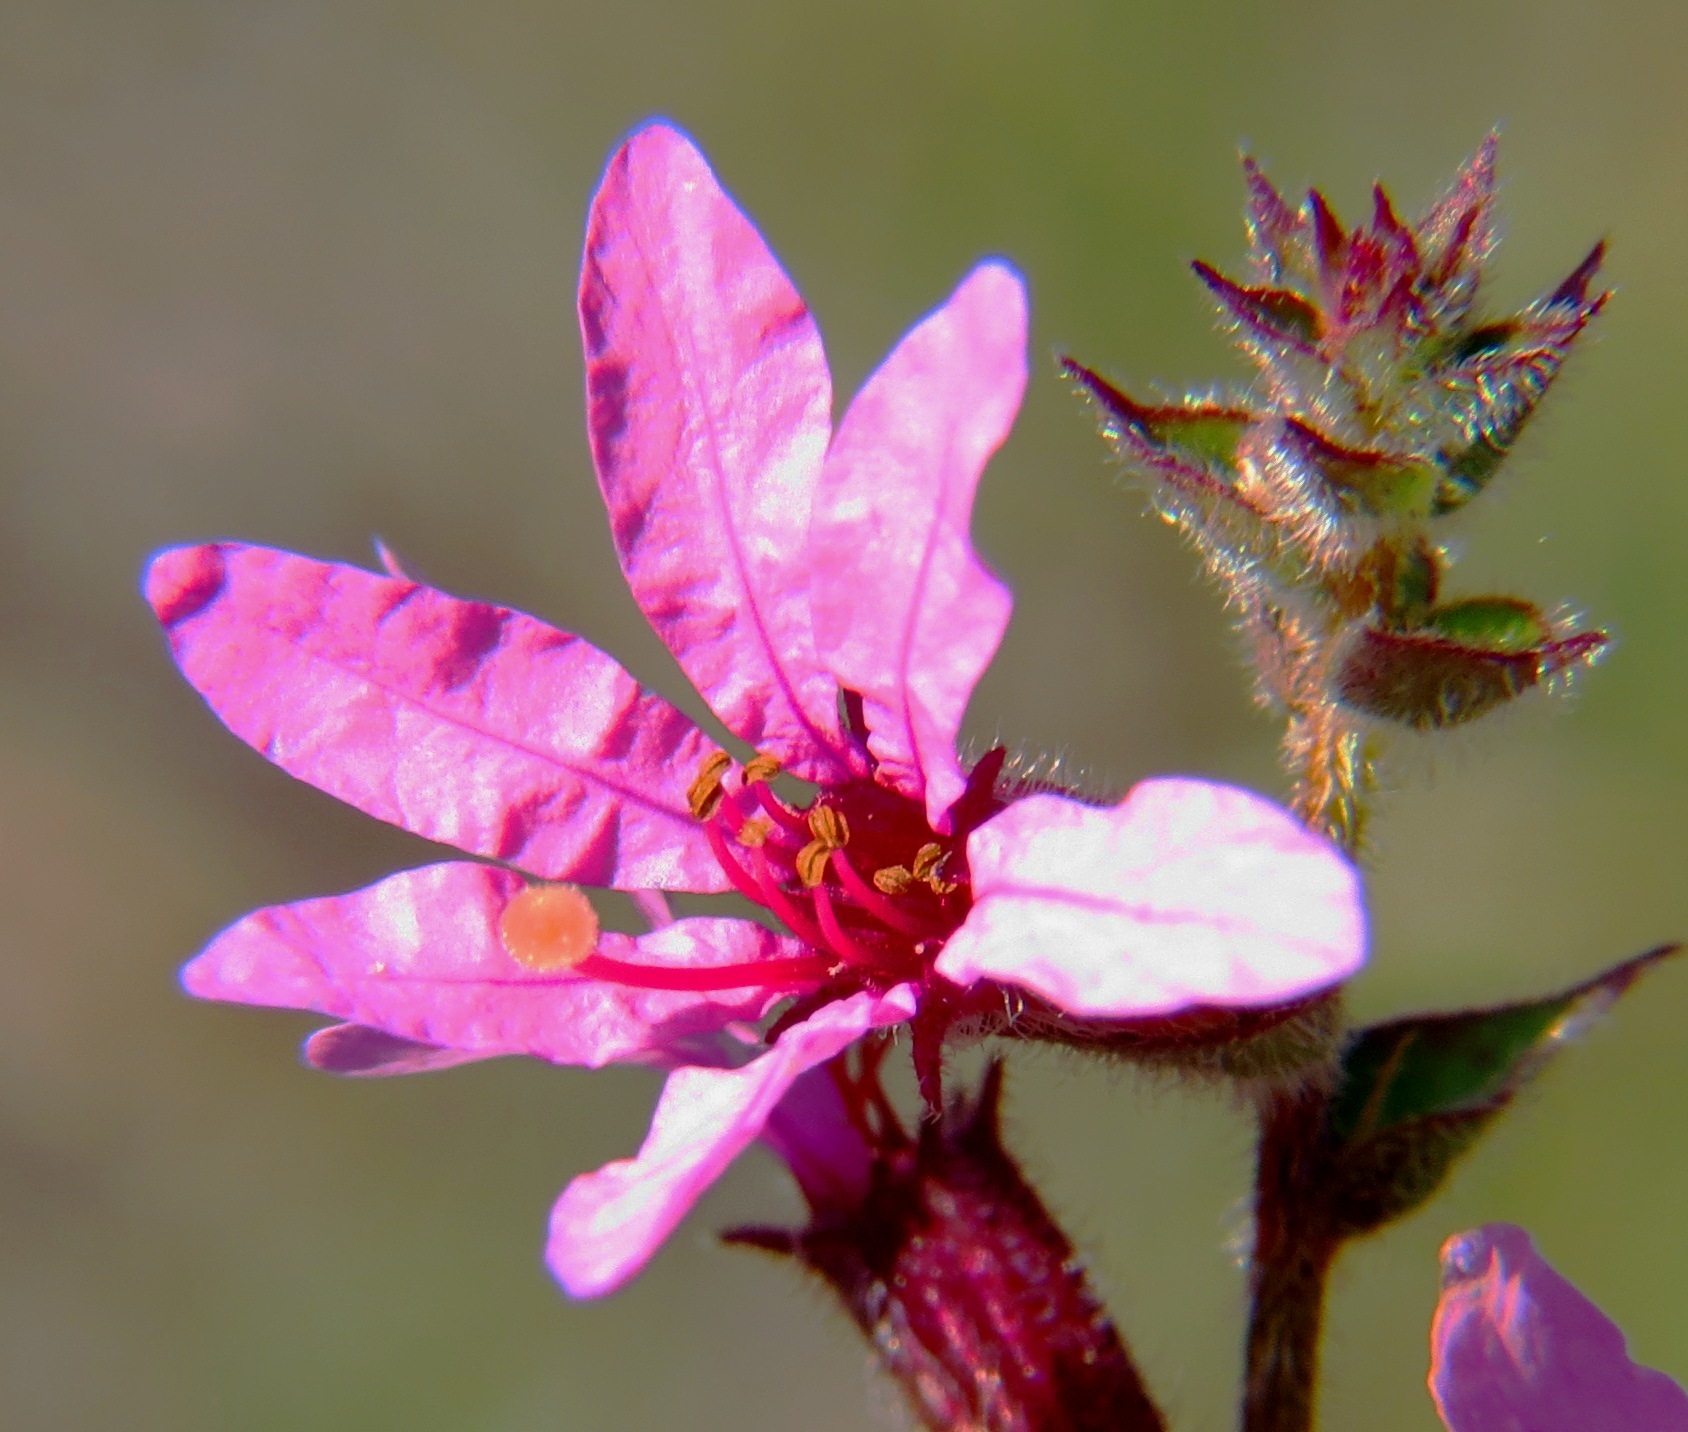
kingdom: Plantae
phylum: Tracheophyta
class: Magnoliopsida
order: Myrtales
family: Lythraceae
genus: Lythrum
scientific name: Lythrum salicaria
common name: Purple loosestrife
